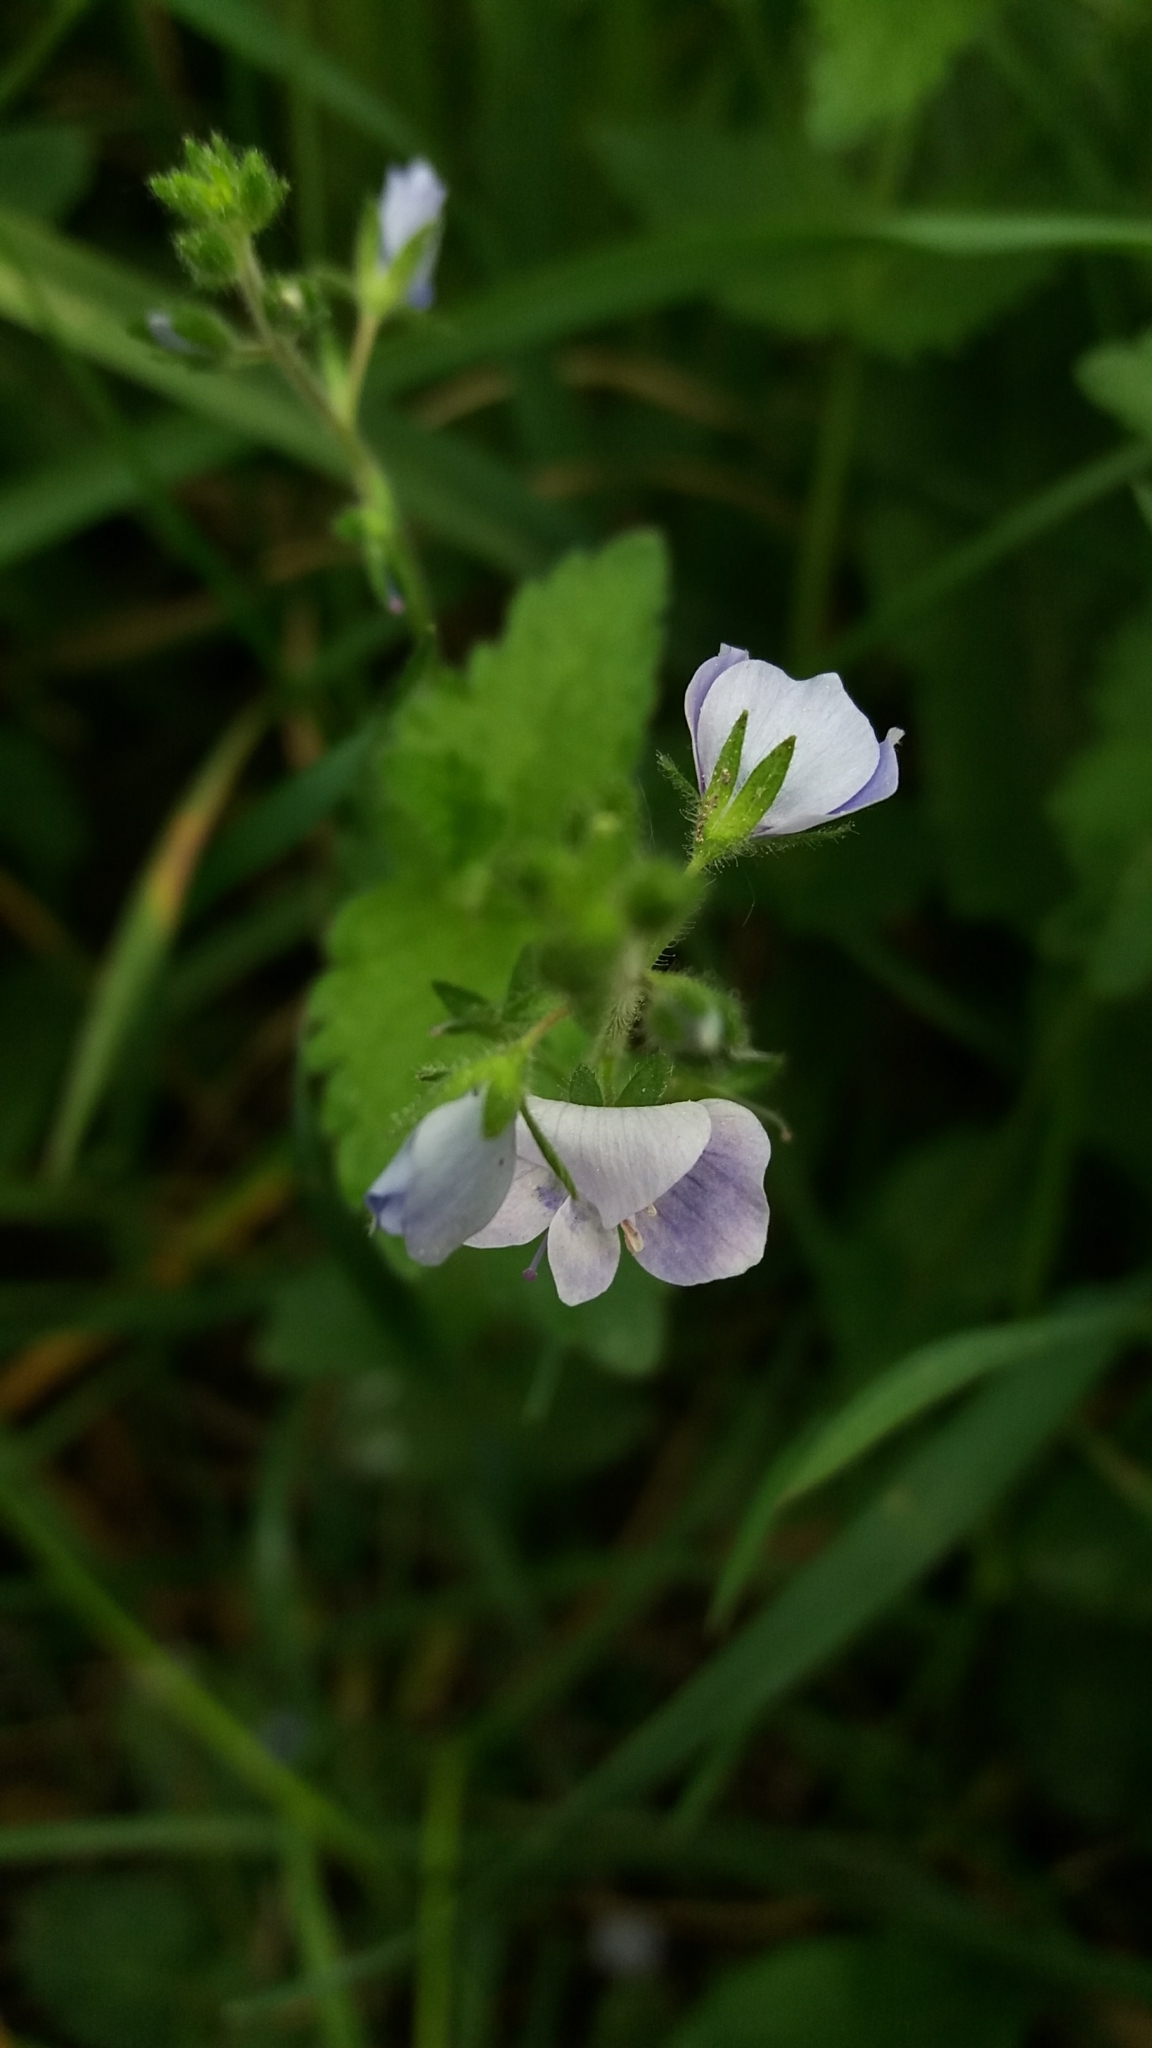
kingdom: Plantae
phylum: Tracheophyta
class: Magnoliopsida
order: Lamiales
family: Plantaginaceae
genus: Veronica
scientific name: Veronica chamaedrys
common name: Germander speedwell
